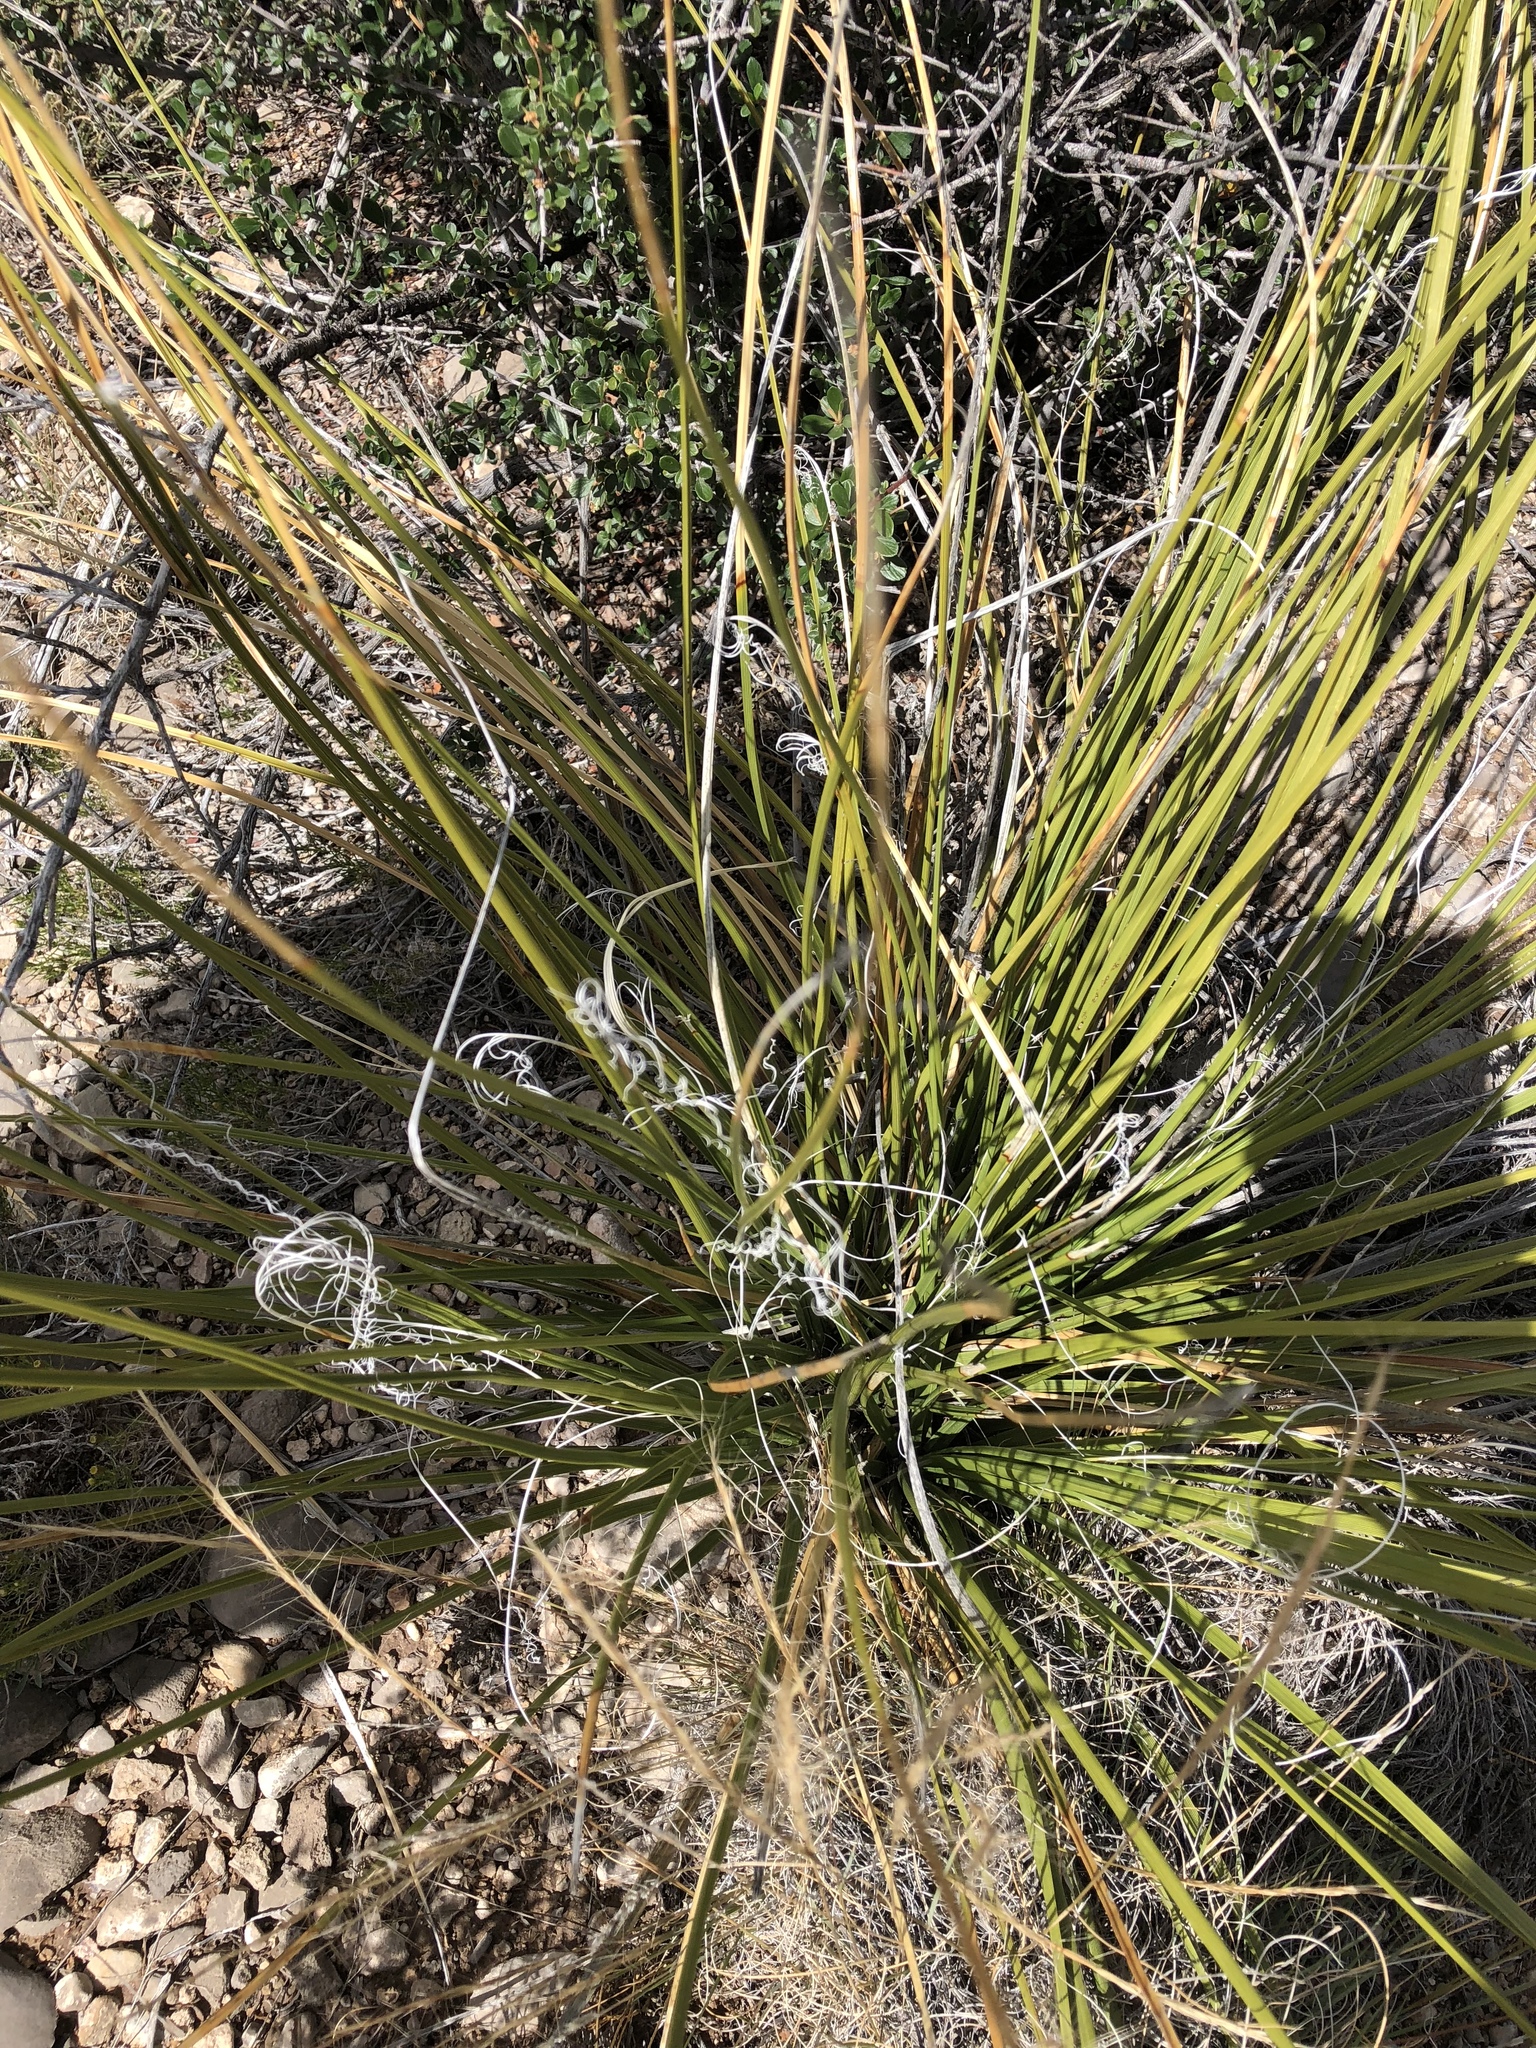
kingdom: Plantae
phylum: Tracheophyta
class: Liliopsida
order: Asparagales
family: Asparagaceae
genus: Nolina
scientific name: Nolina microcarpa
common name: Bear-grass
